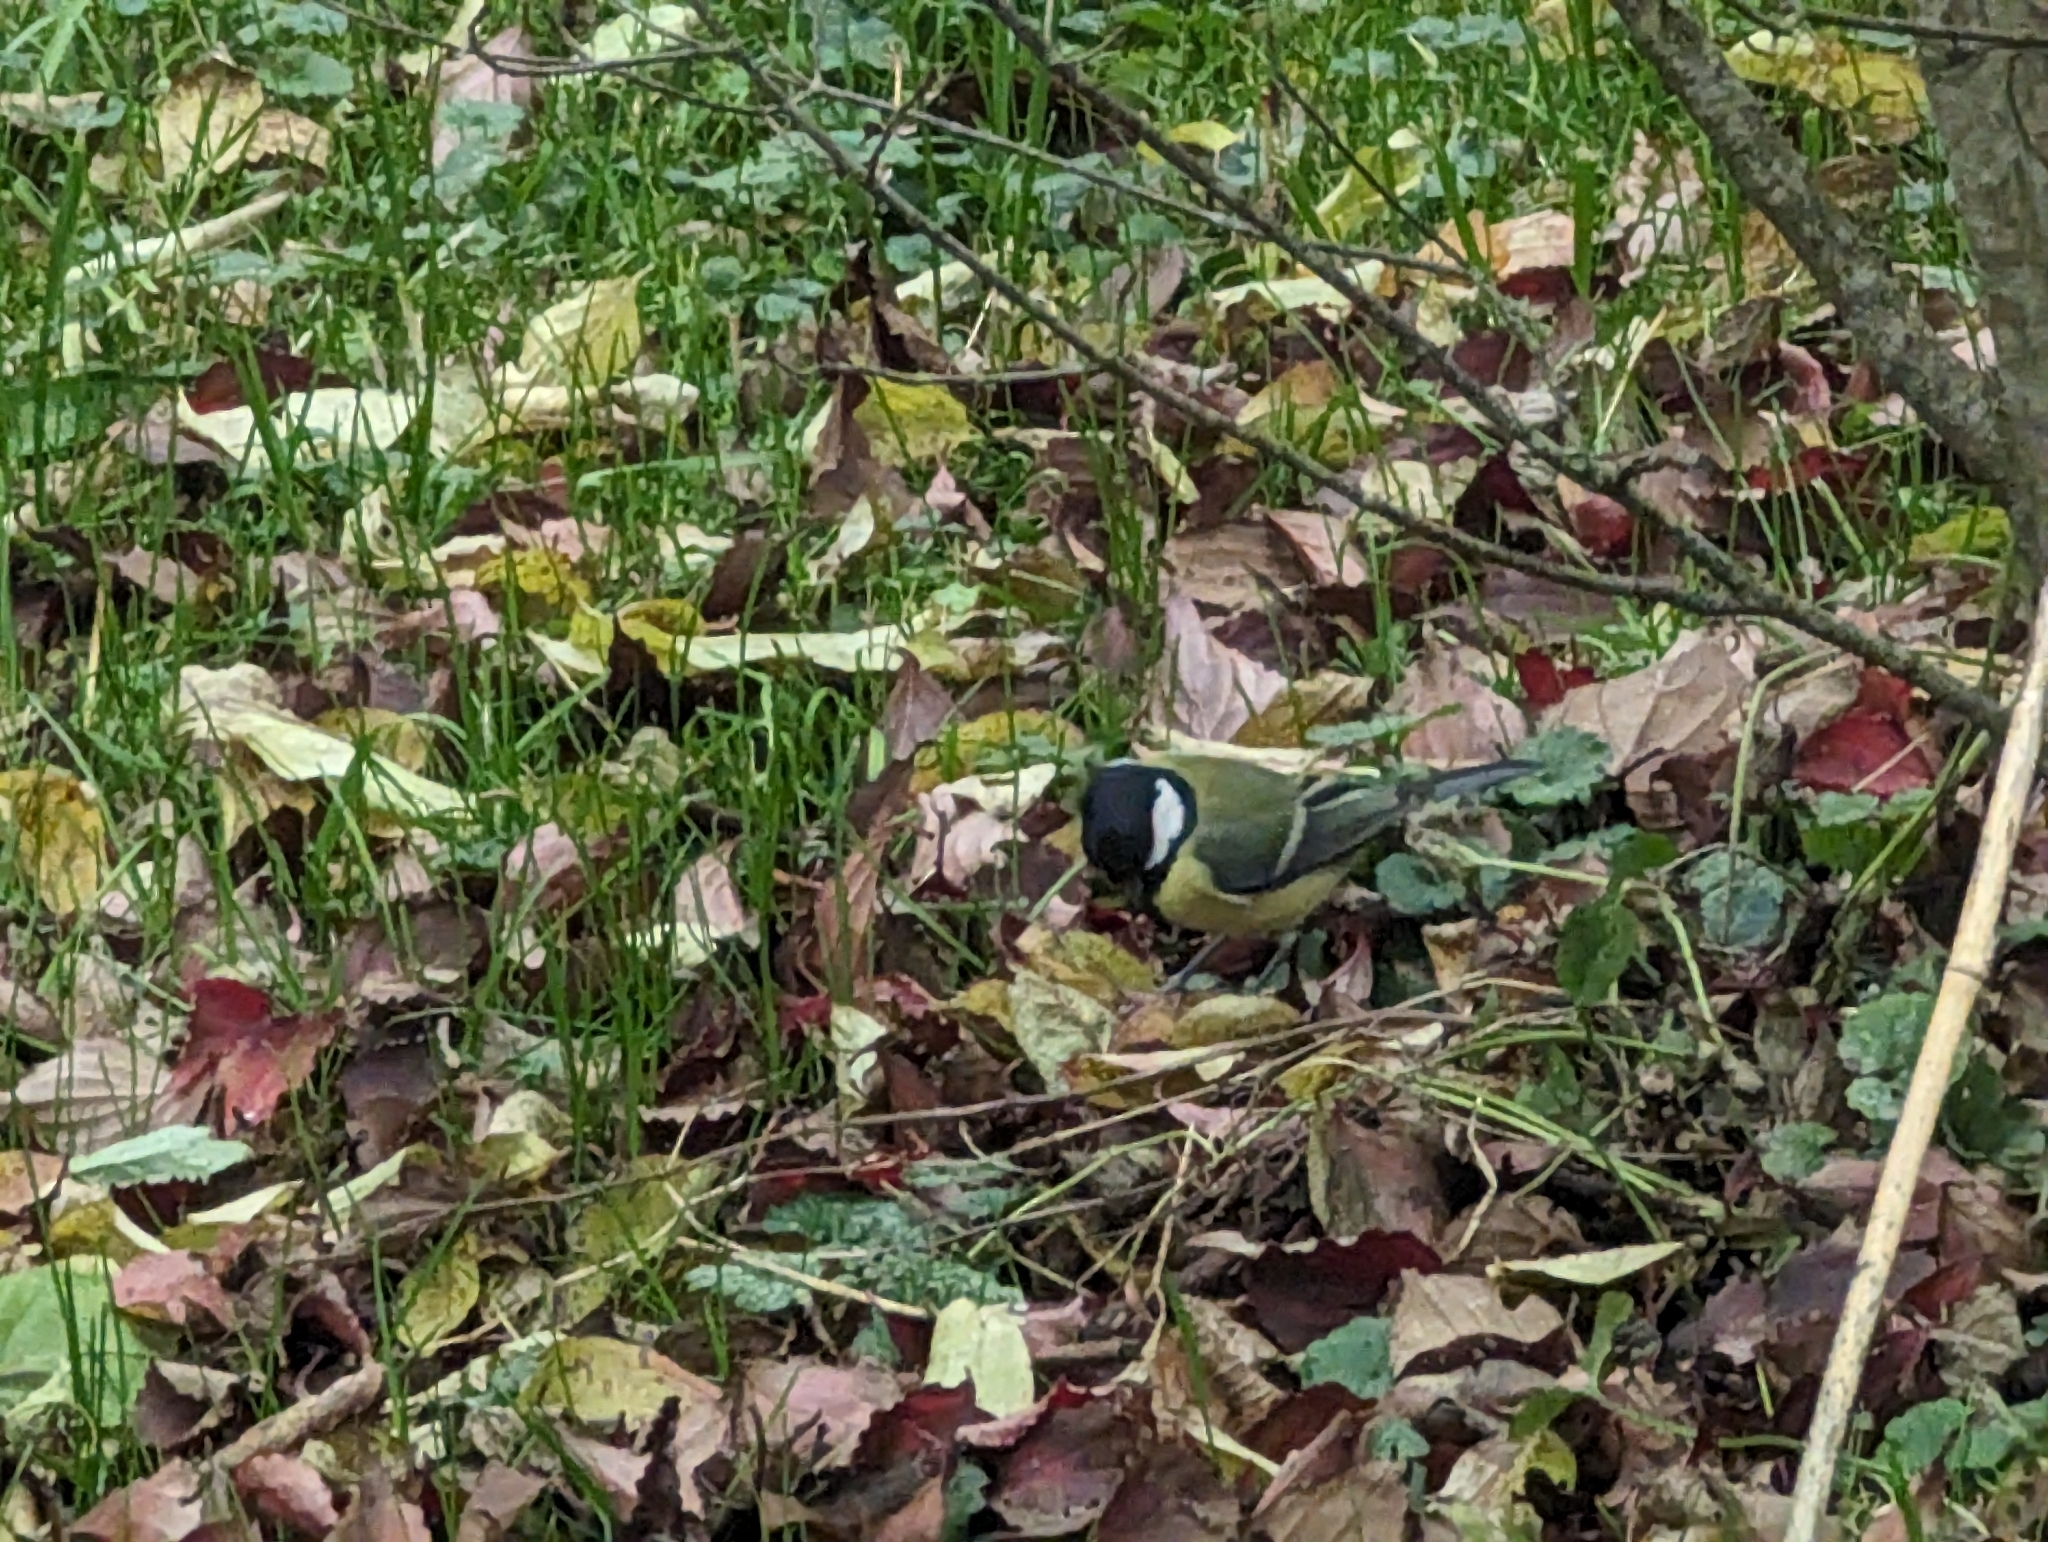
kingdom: Animalia
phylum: Chordata
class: Aves
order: Passeriformes
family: Paridae
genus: Parus
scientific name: Parus major
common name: Great tit
